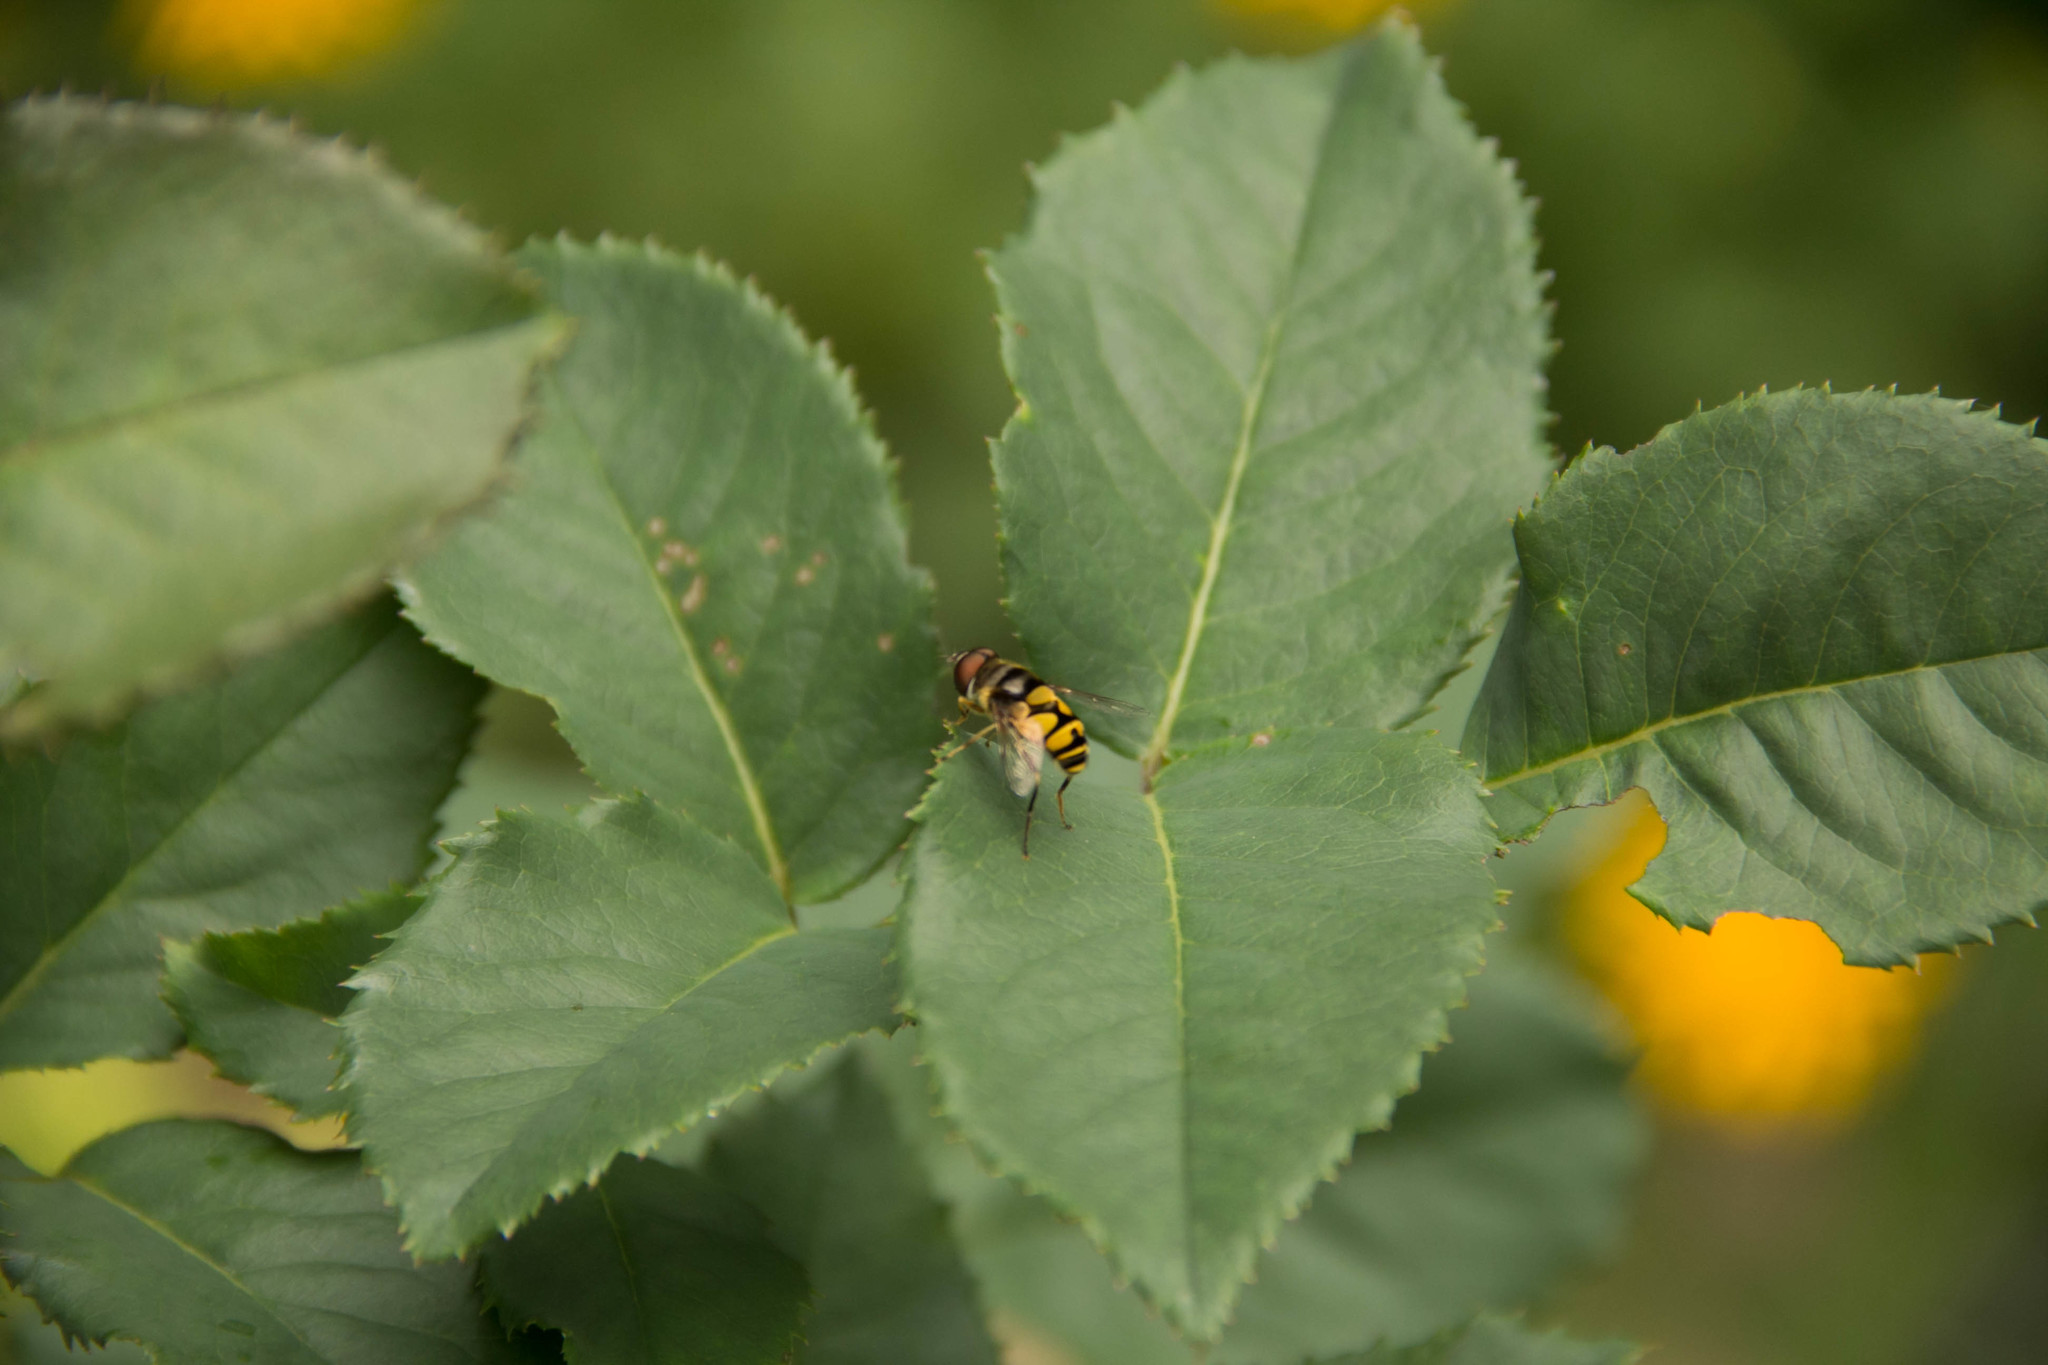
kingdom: Animalia
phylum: Arthropoda
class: Insecta
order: Diptera
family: Syrphidae
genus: Eristalis
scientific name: Eristalis transversa
